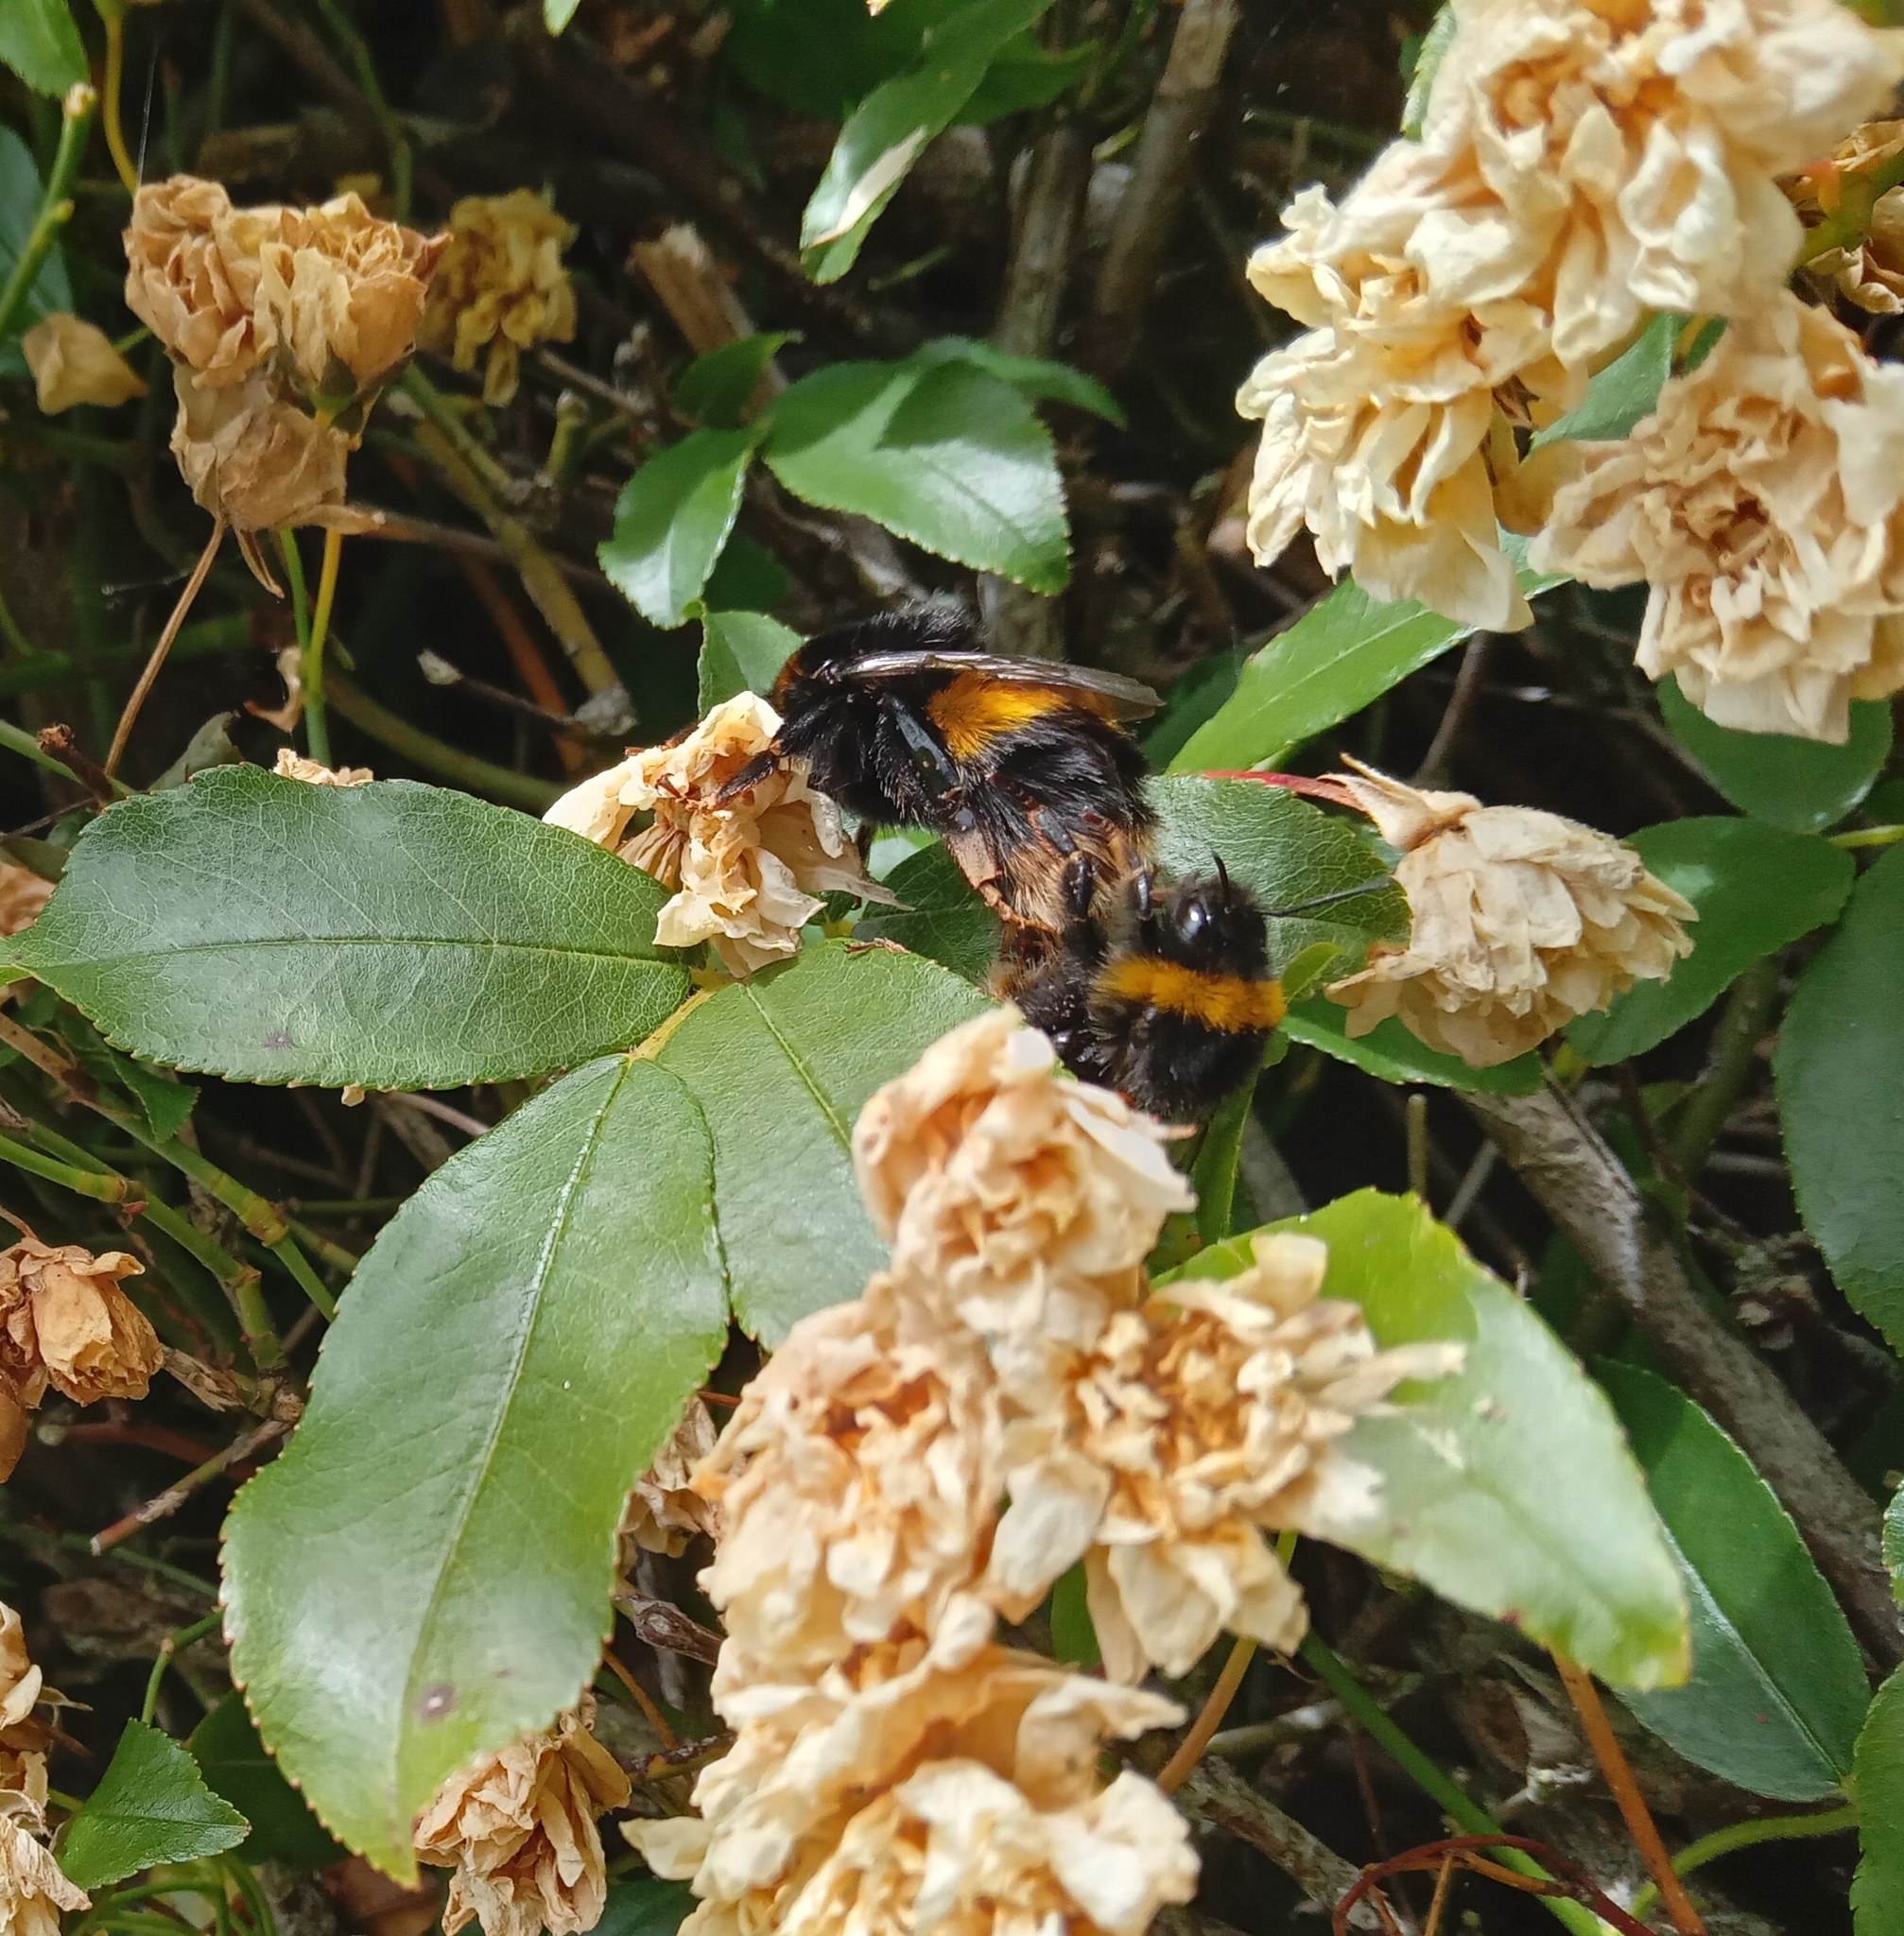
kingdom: Animalia
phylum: Arthropoda
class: Insecta
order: Hymenoptera
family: Apidae
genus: Bombus
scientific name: Bombus terrestris
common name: Buff-tailed bumblebee
